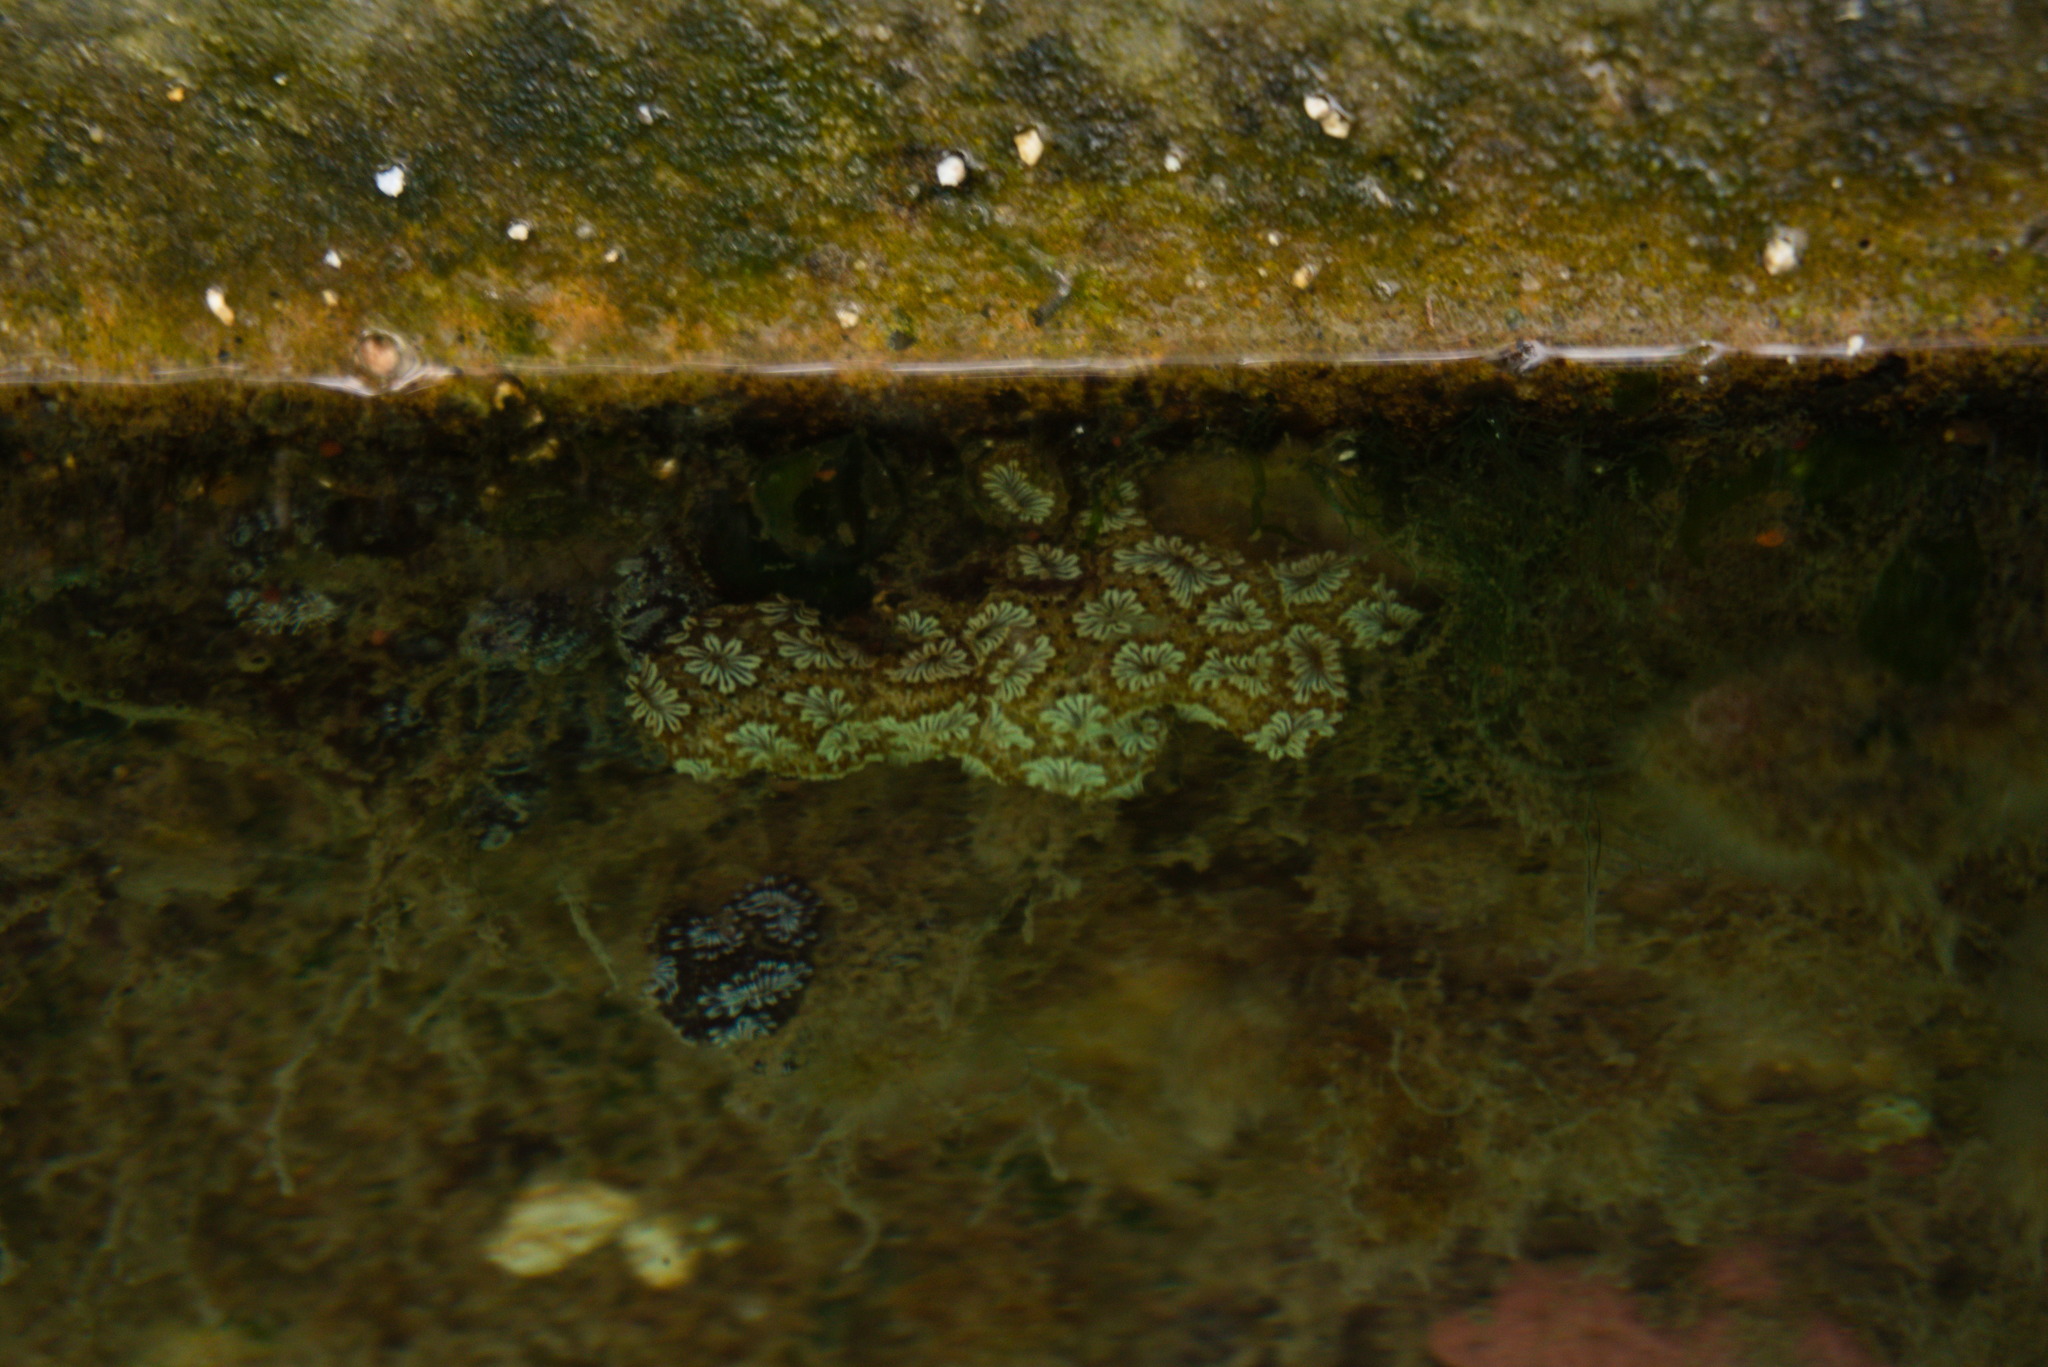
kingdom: Animalia
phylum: Chordata
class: Ascidiacea
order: Stolidobranchia
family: Styelidae
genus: Botryllus
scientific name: Botryllus schlosseri
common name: Golden star tunicate
